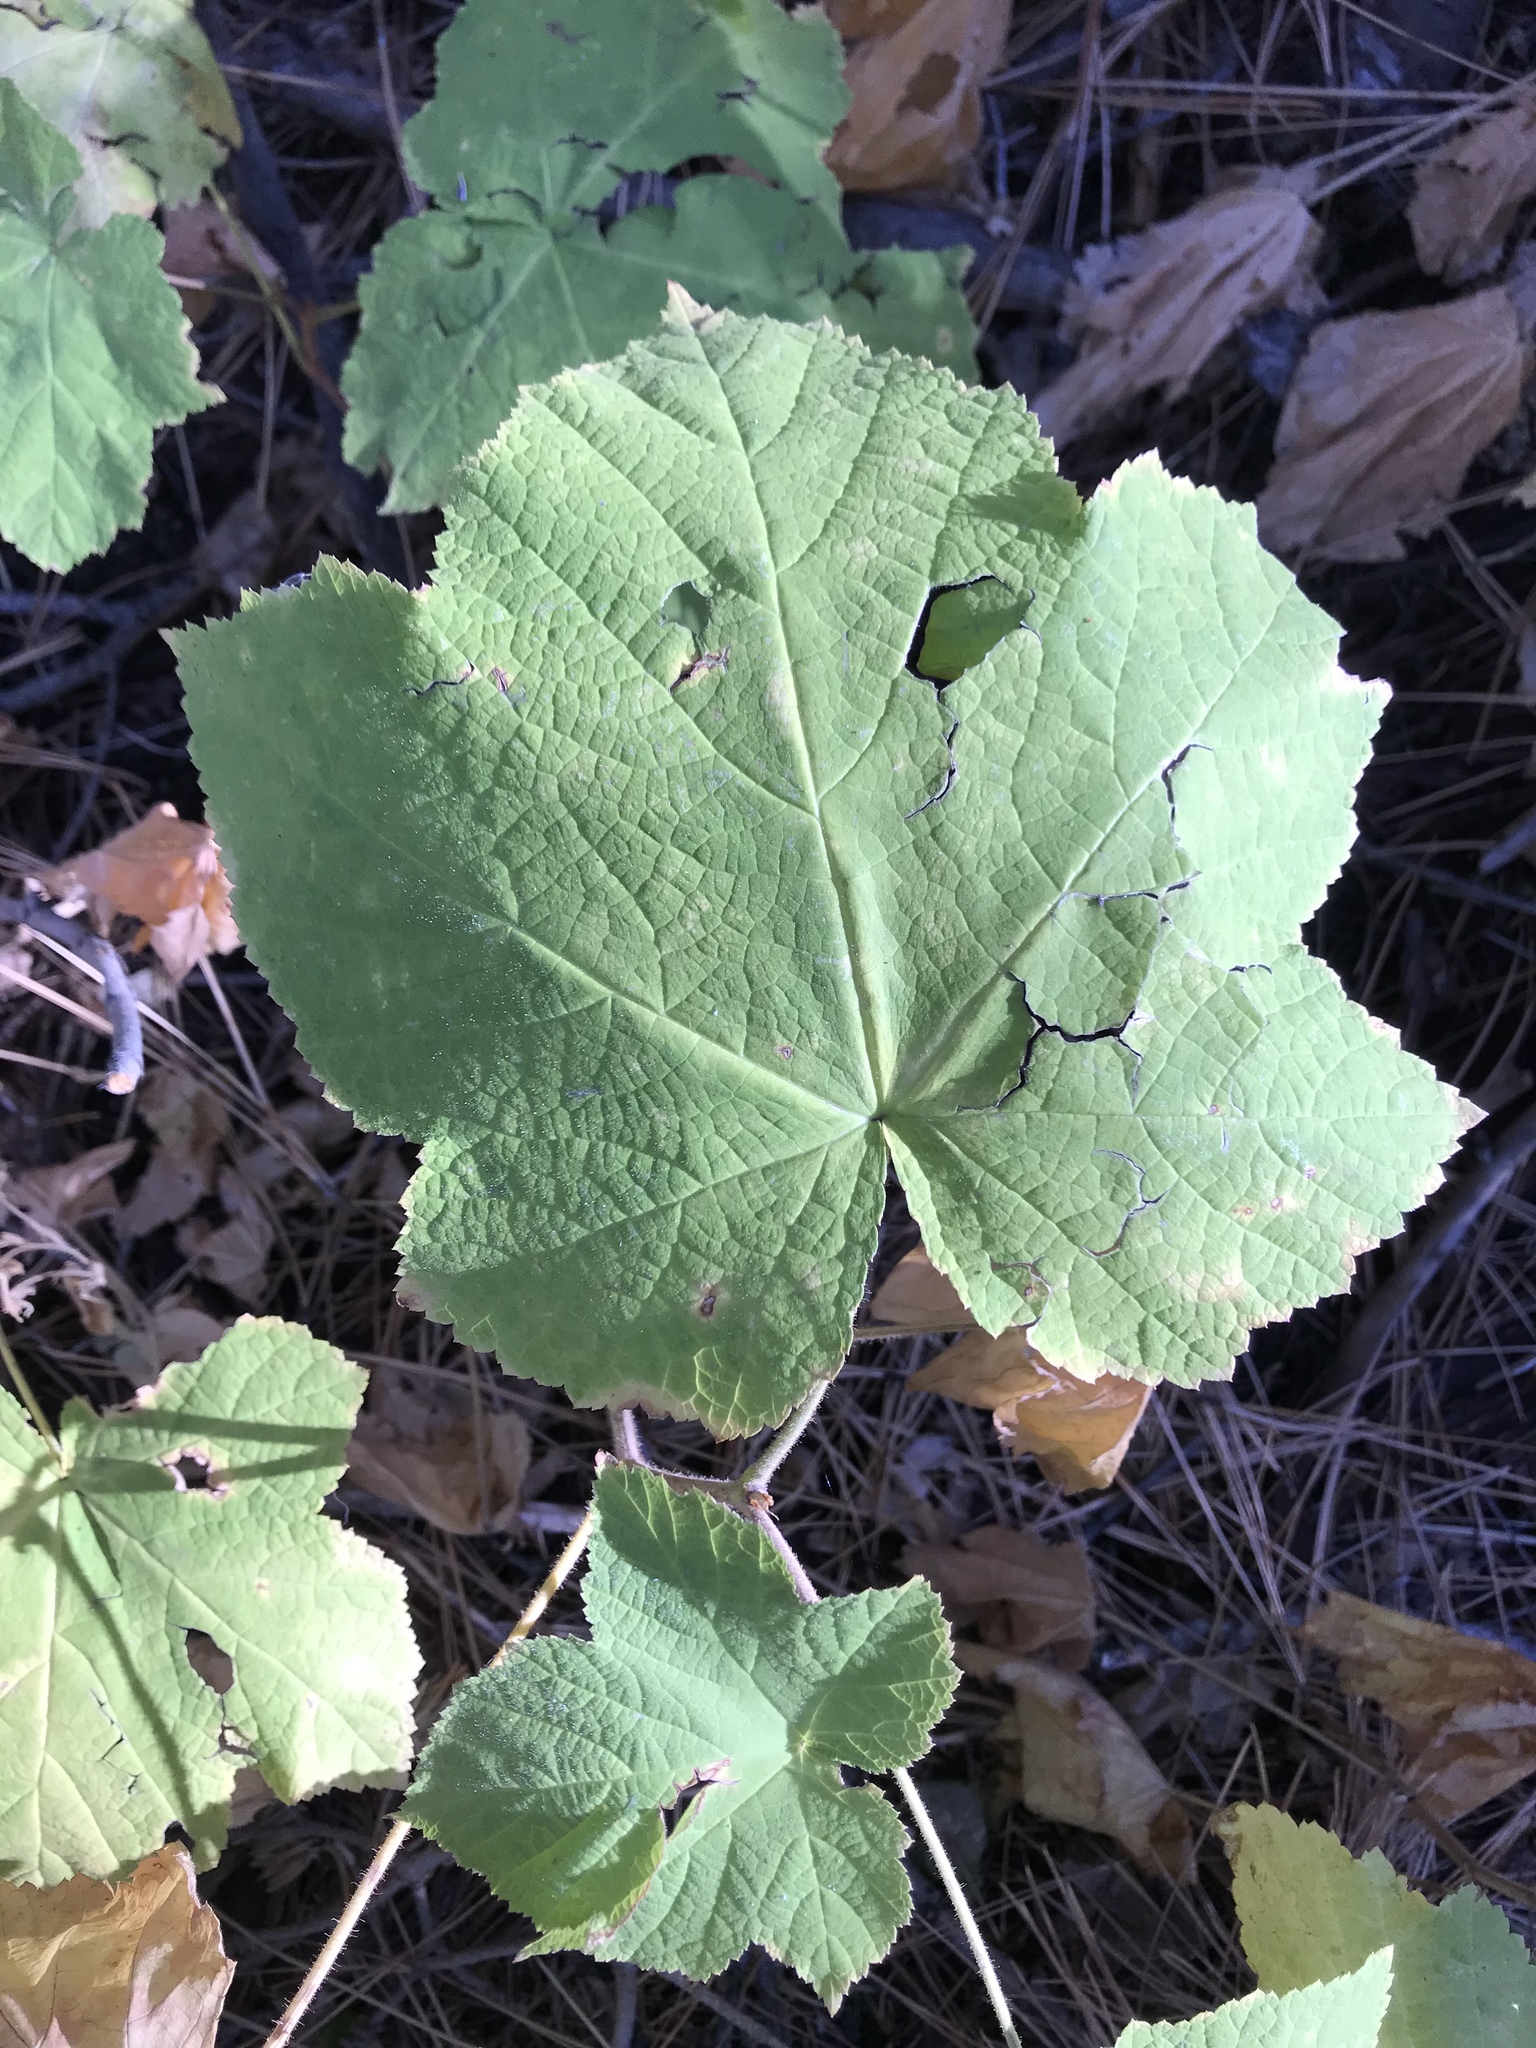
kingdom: Plantae
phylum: Tracheophyta
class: Magnoliopsida
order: Rosales
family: Rosaceae
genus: Rubus
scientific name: Rubus parviflorus
